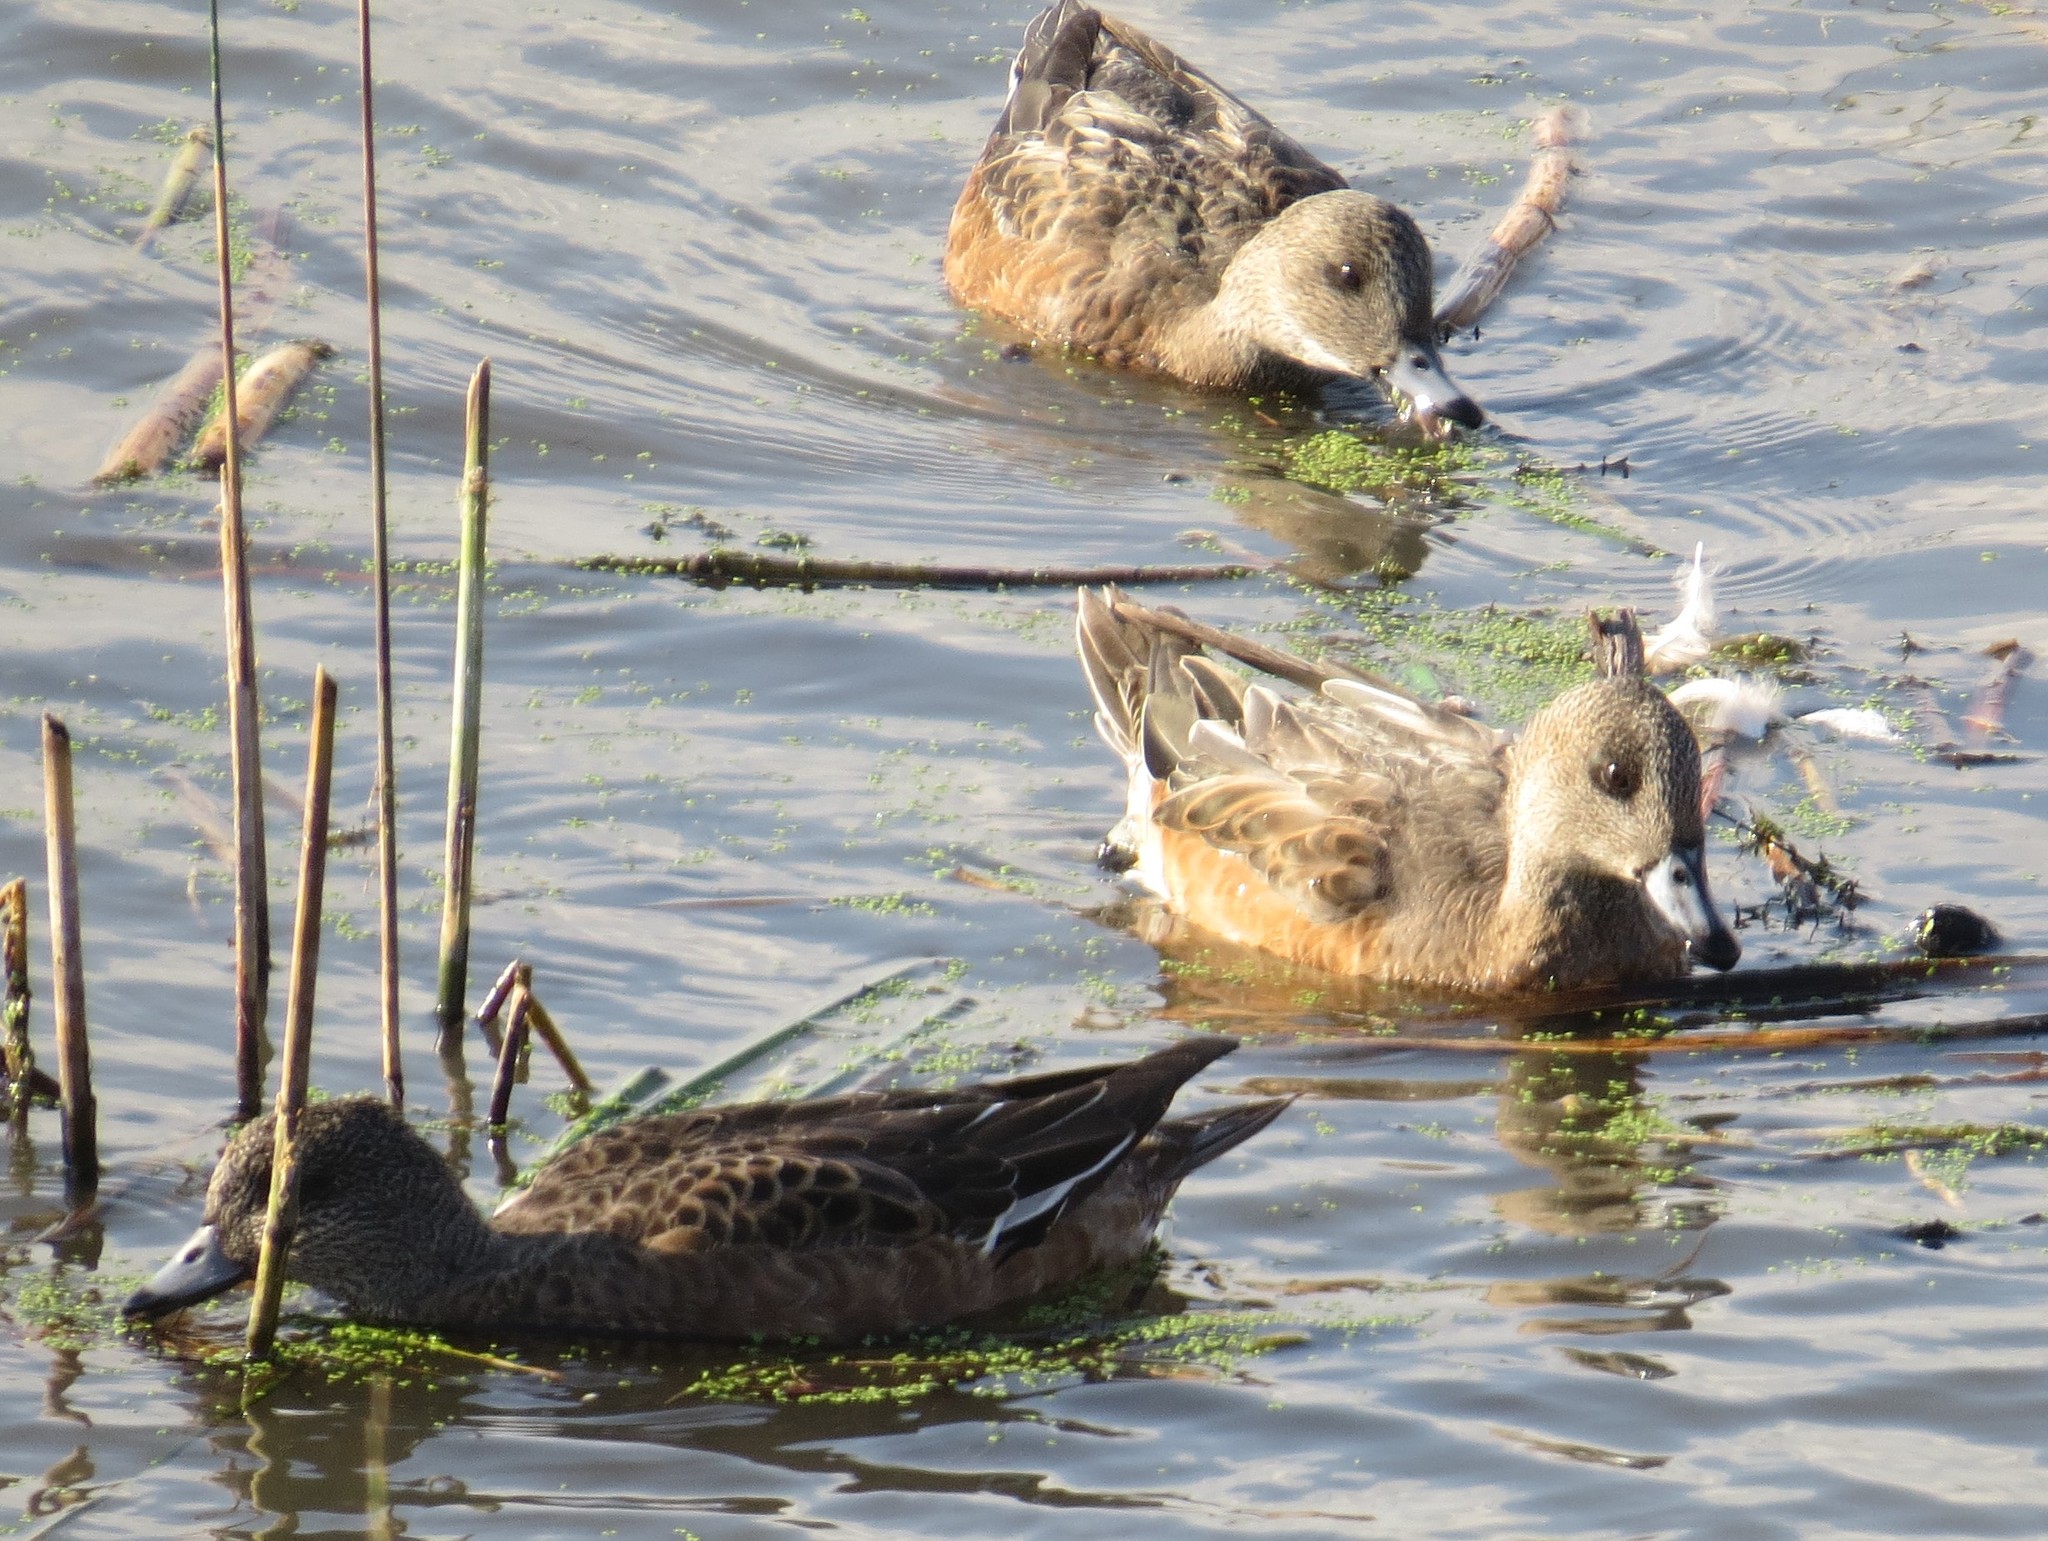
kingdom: Animalia
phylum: Chordata
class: Aves
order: Anseriformes
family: Anatidae
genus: Mareca
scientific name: Mareca americana
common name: American wigeon
